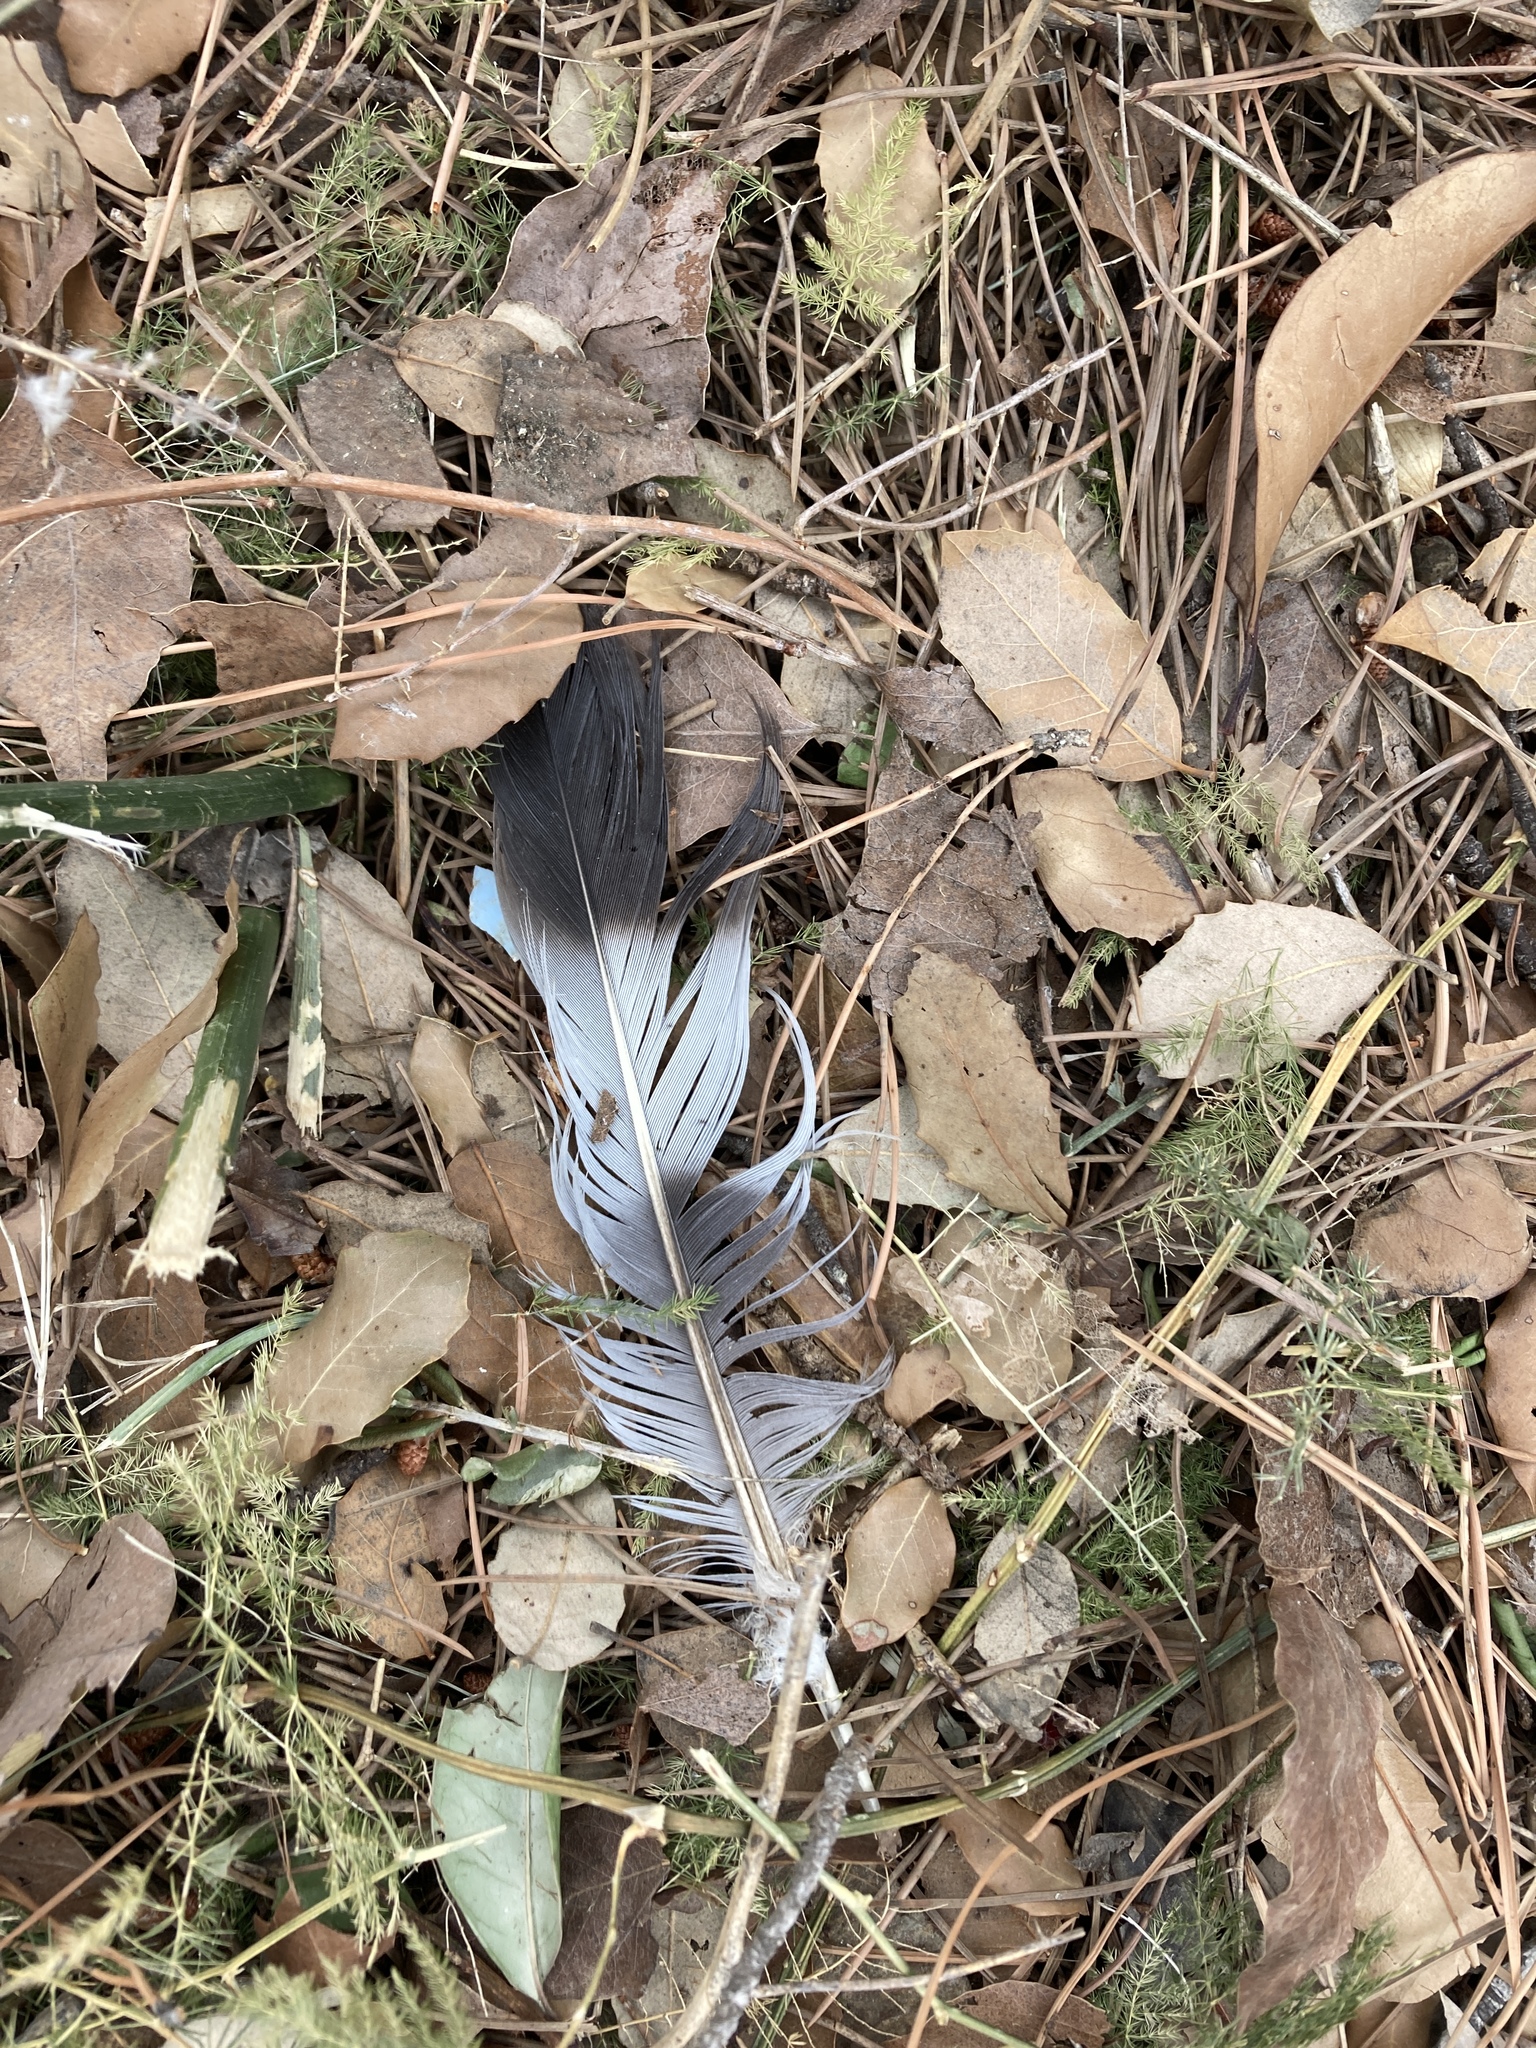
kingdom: Animalia
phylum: Chordata
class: Aves
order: Columbiformes
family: Columbidae
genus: Columba
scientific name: Columba palumbus
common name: Common wood pigeon
